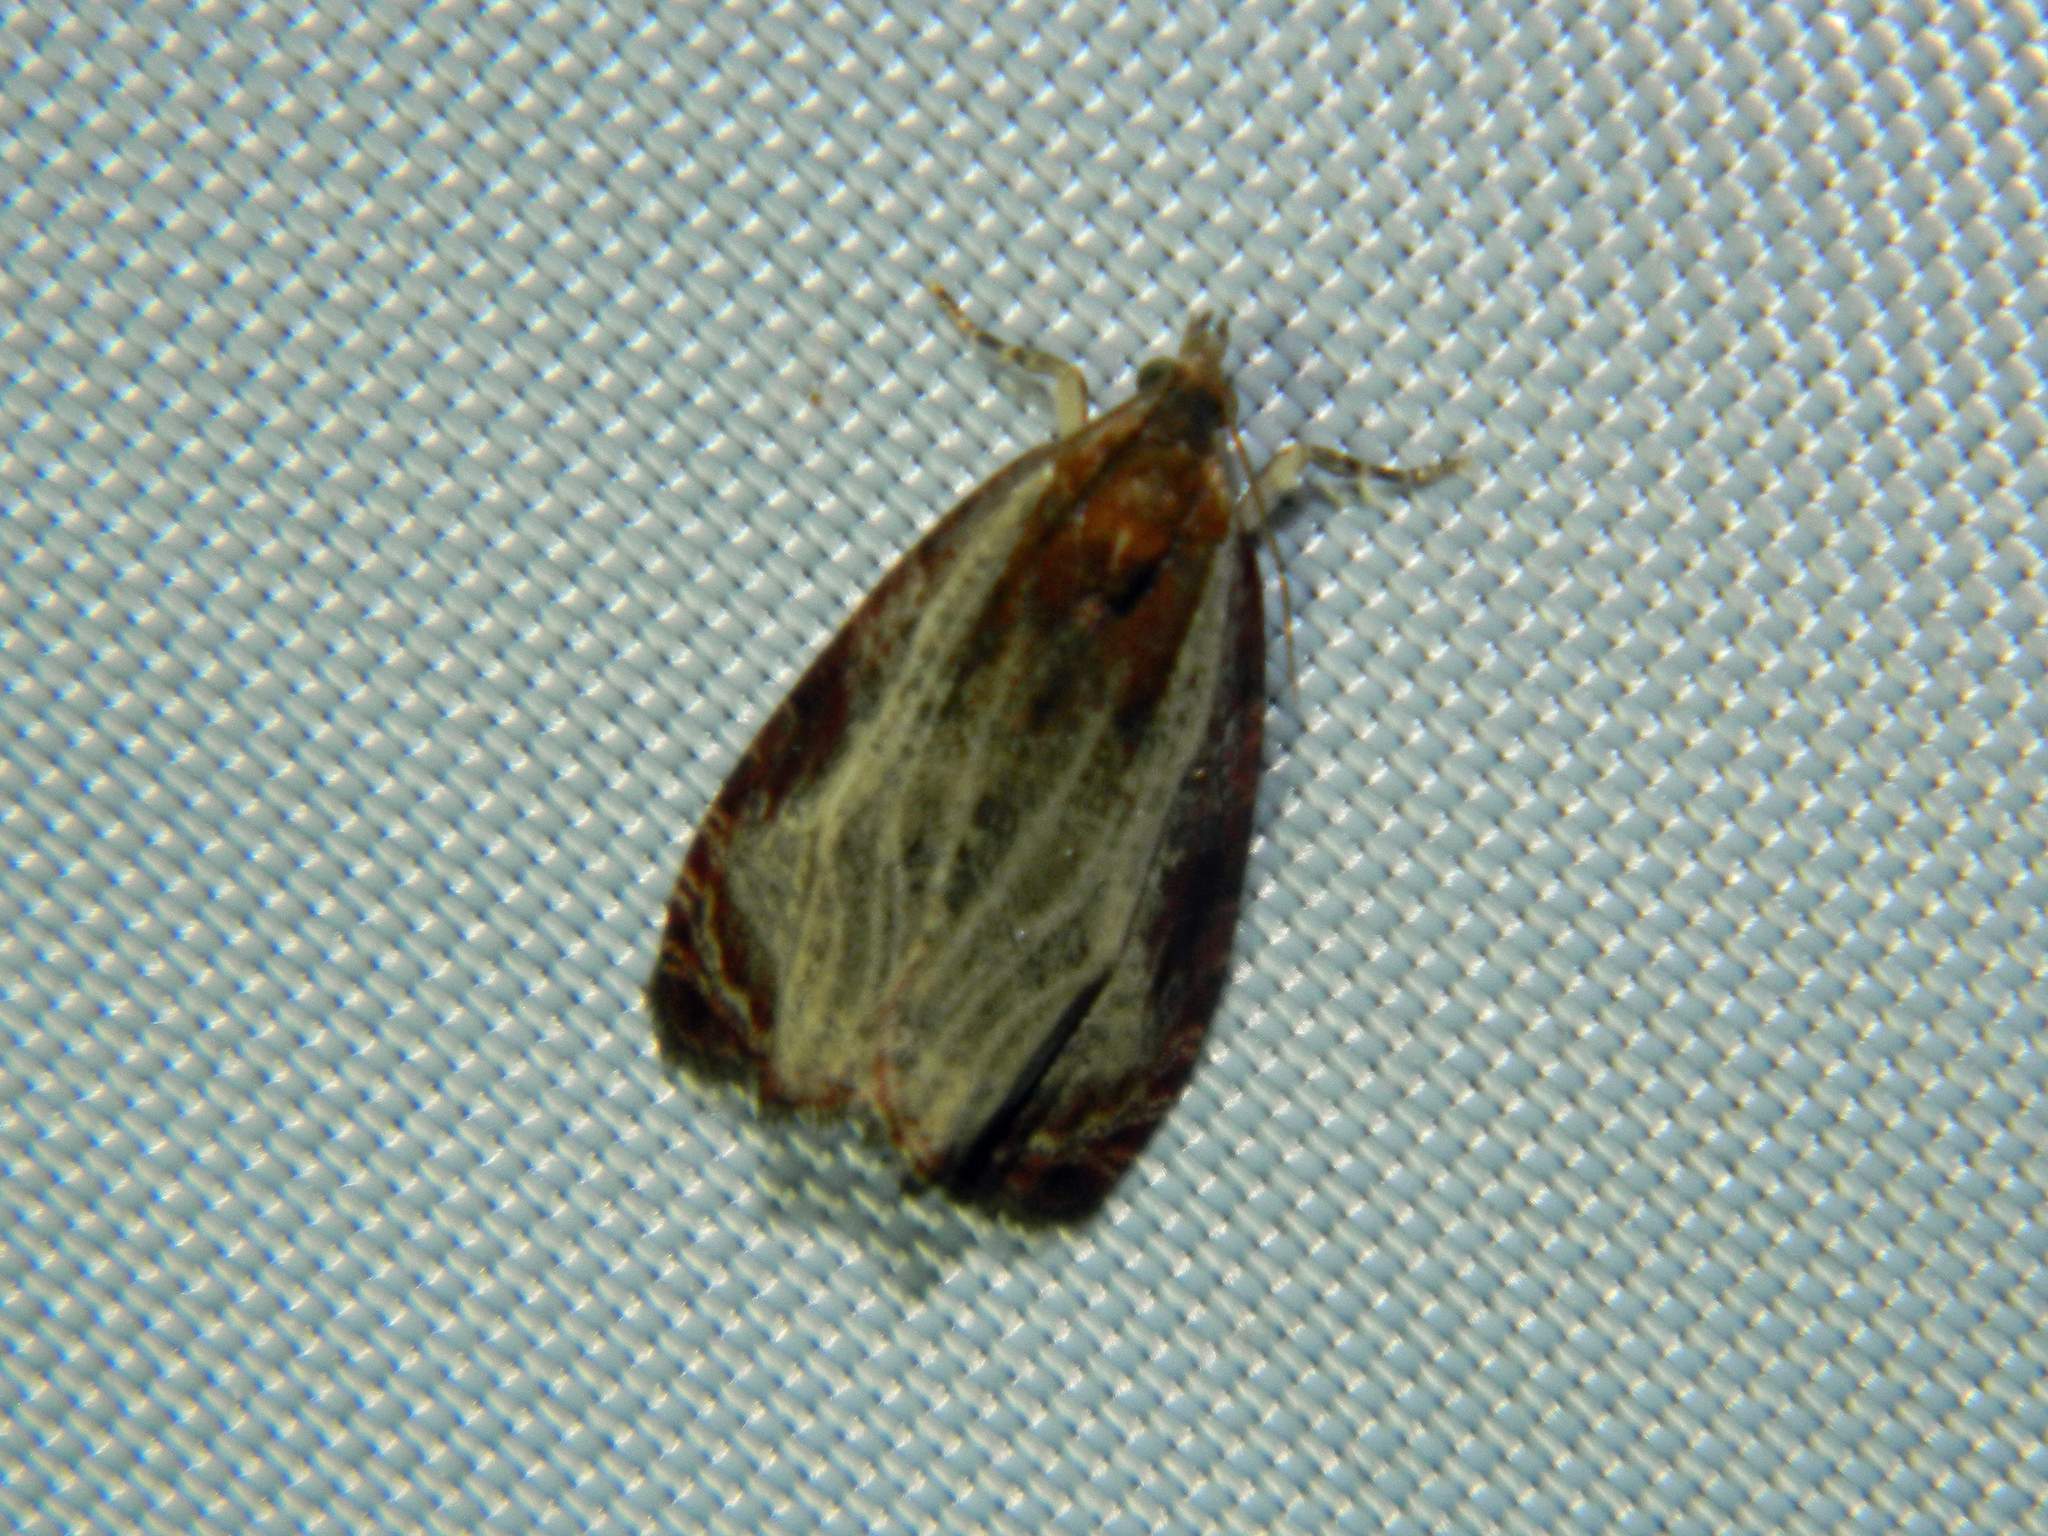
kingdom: Animalia
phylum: Arthropoda
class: Insecta
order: Lepidoptera
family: Tortricidae
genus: Olethreutes
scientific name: Olethreutes quadrifidum
